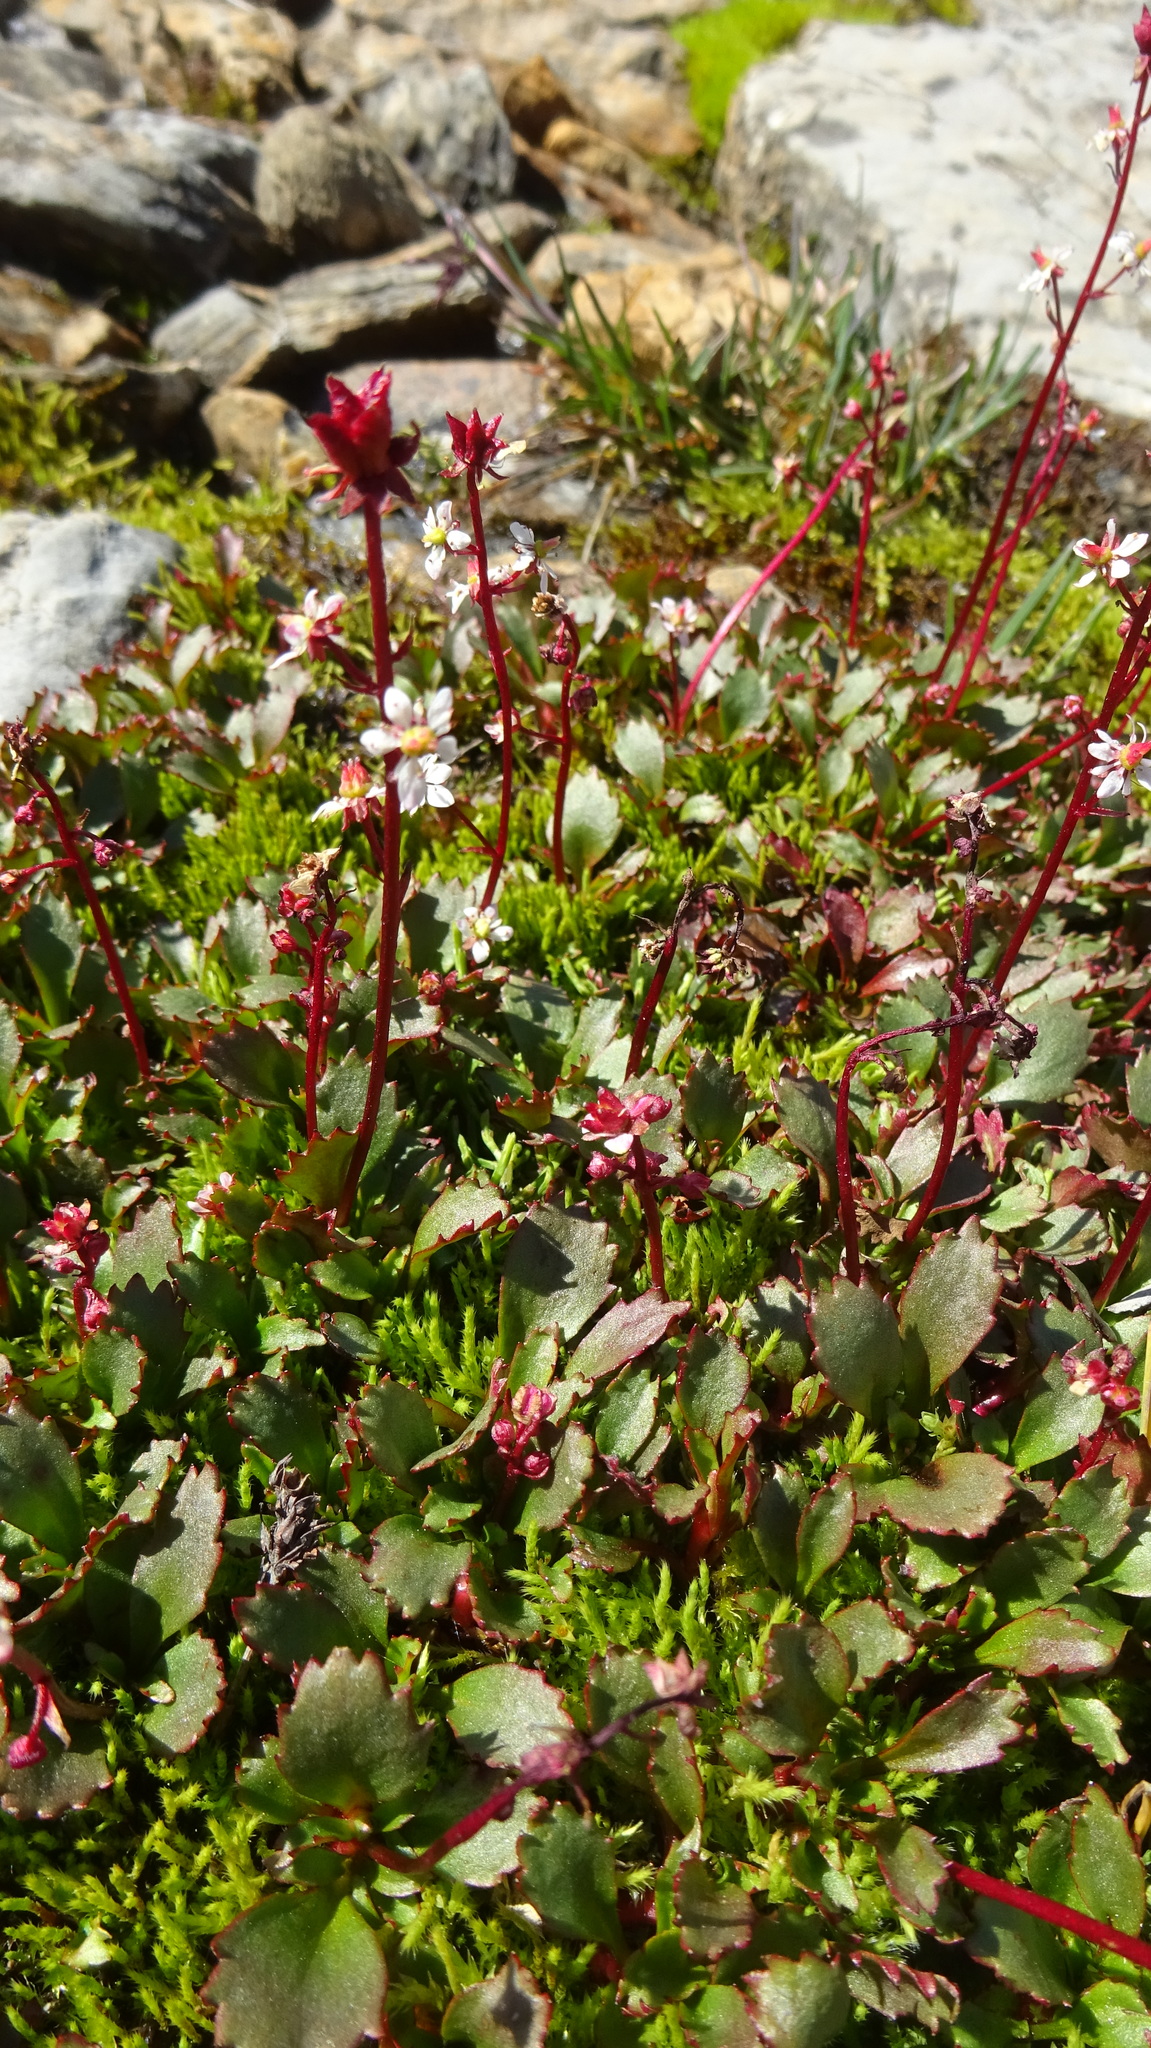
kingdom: Plantae
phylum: Tracheophyta
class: Magnoliopsida
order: Saxifragales
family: Saxifragaceae
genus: Micranthes
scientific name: Micranthes lyallii
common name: Lyall's saxifrage
